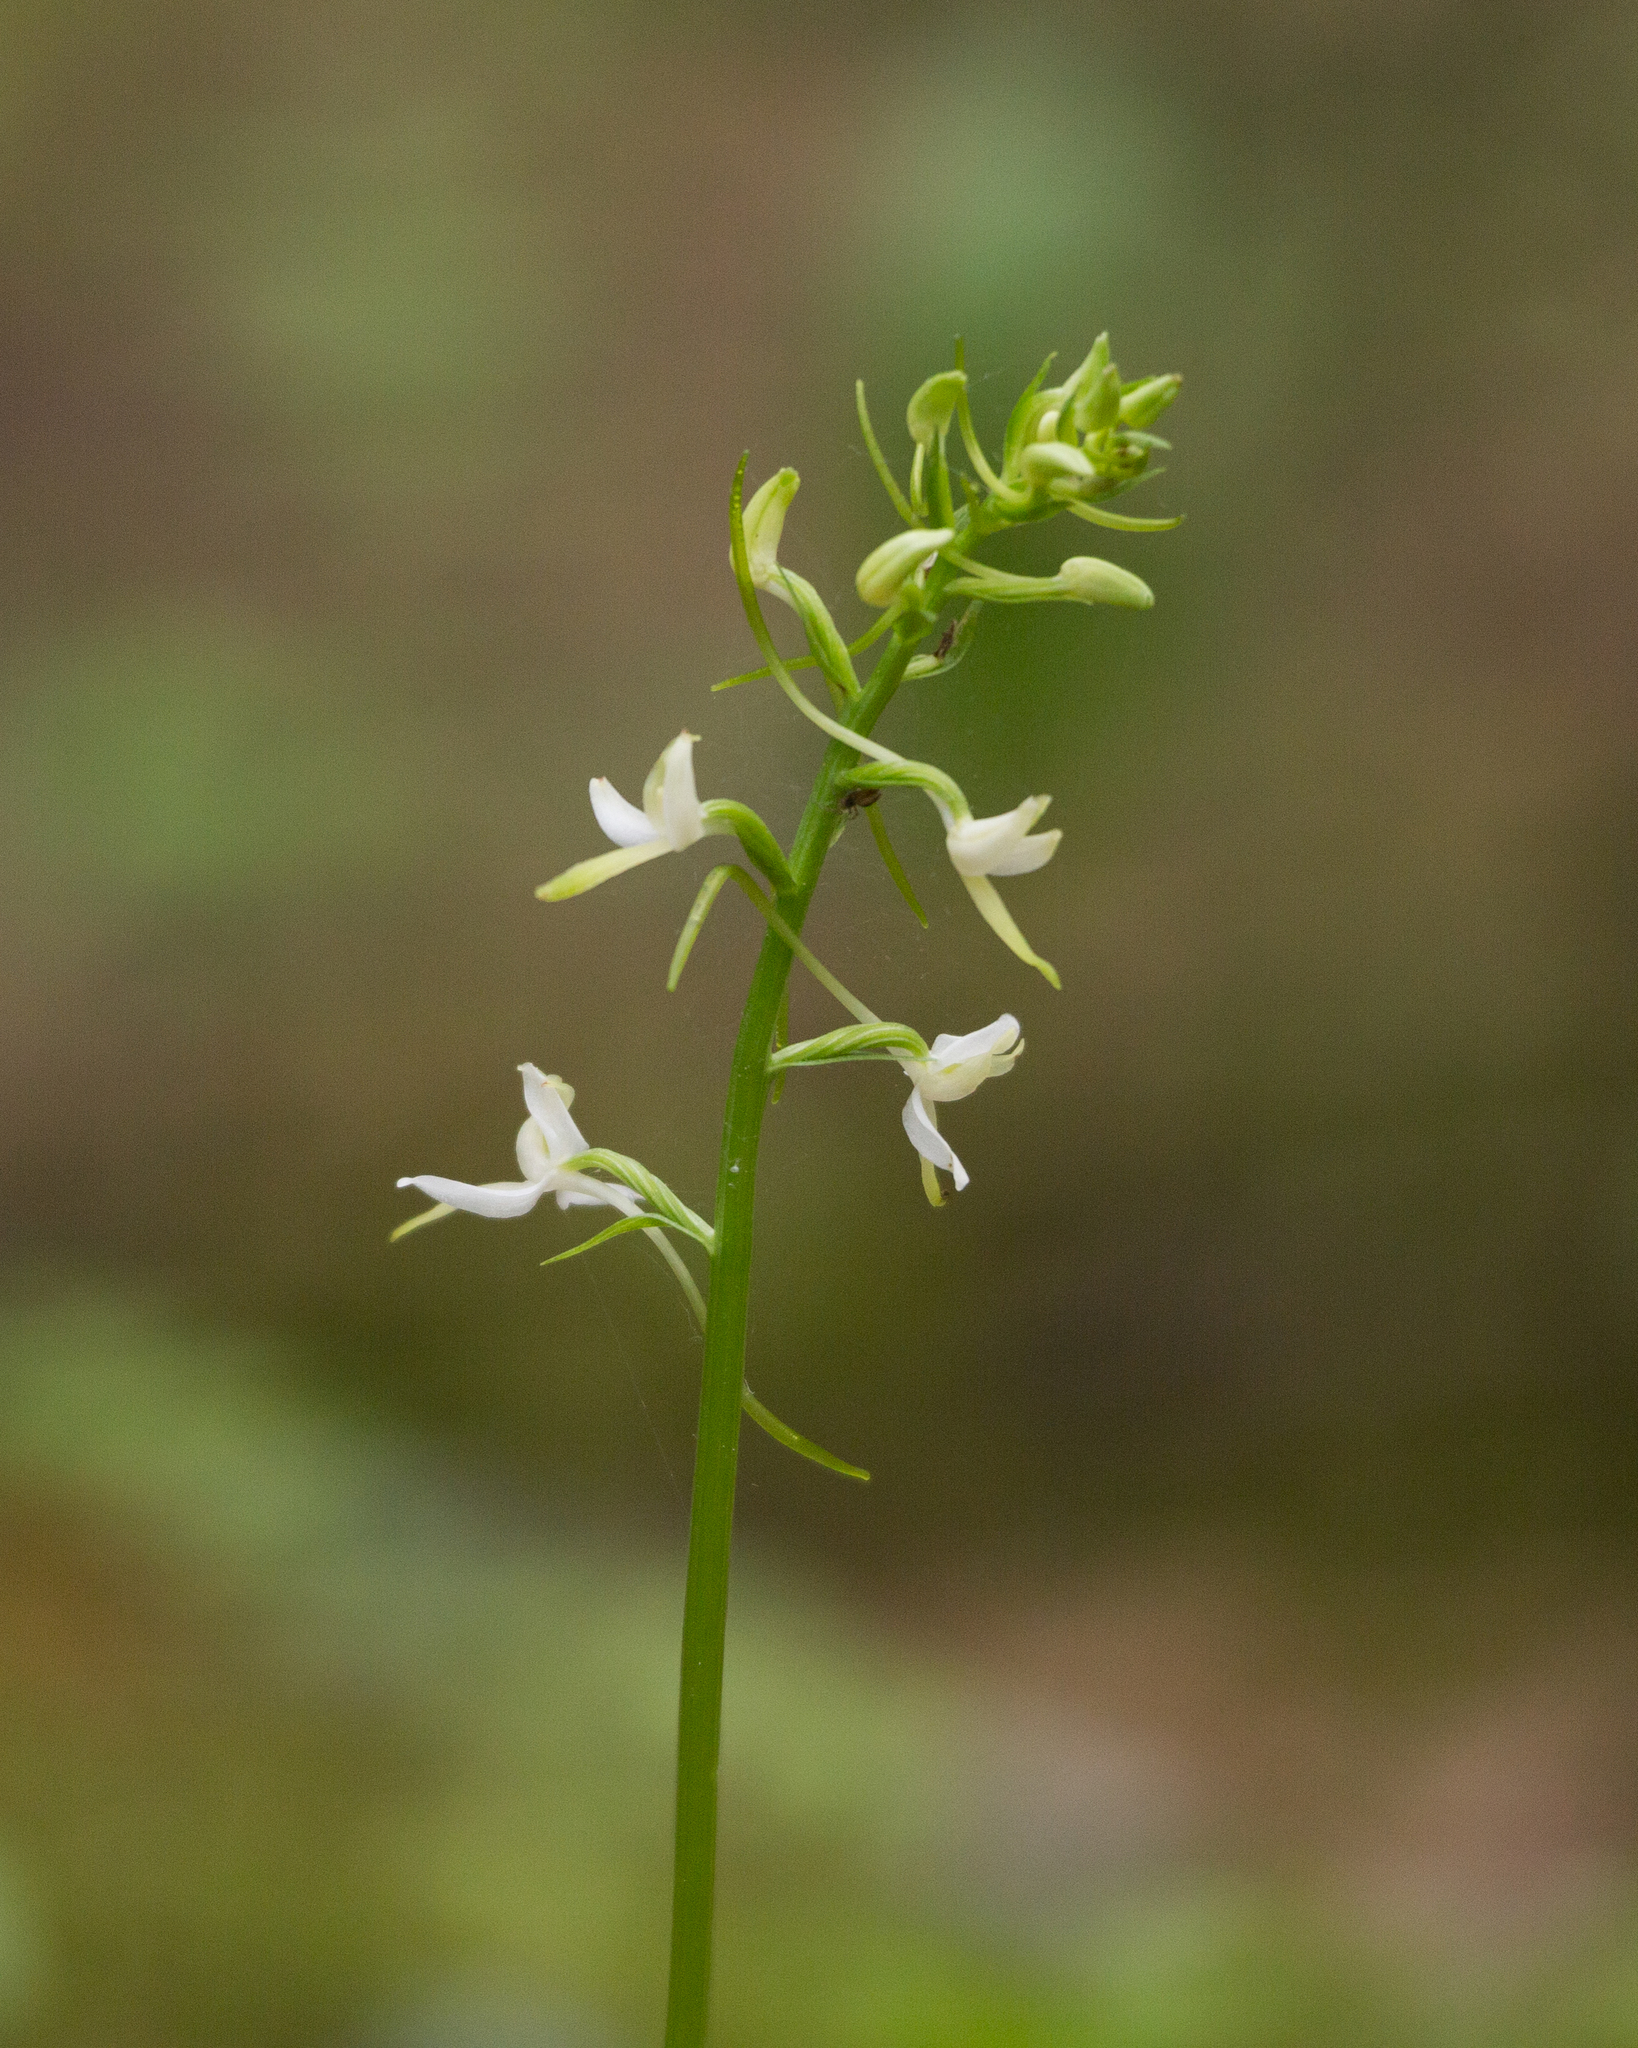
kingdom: Plantae
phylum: Tracheophyta
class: Liliopsida
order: Asparagales
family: Orchidaceae
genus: Platanthera
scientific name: Platanthera bifolia
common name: Lesser butterfly-orchid
